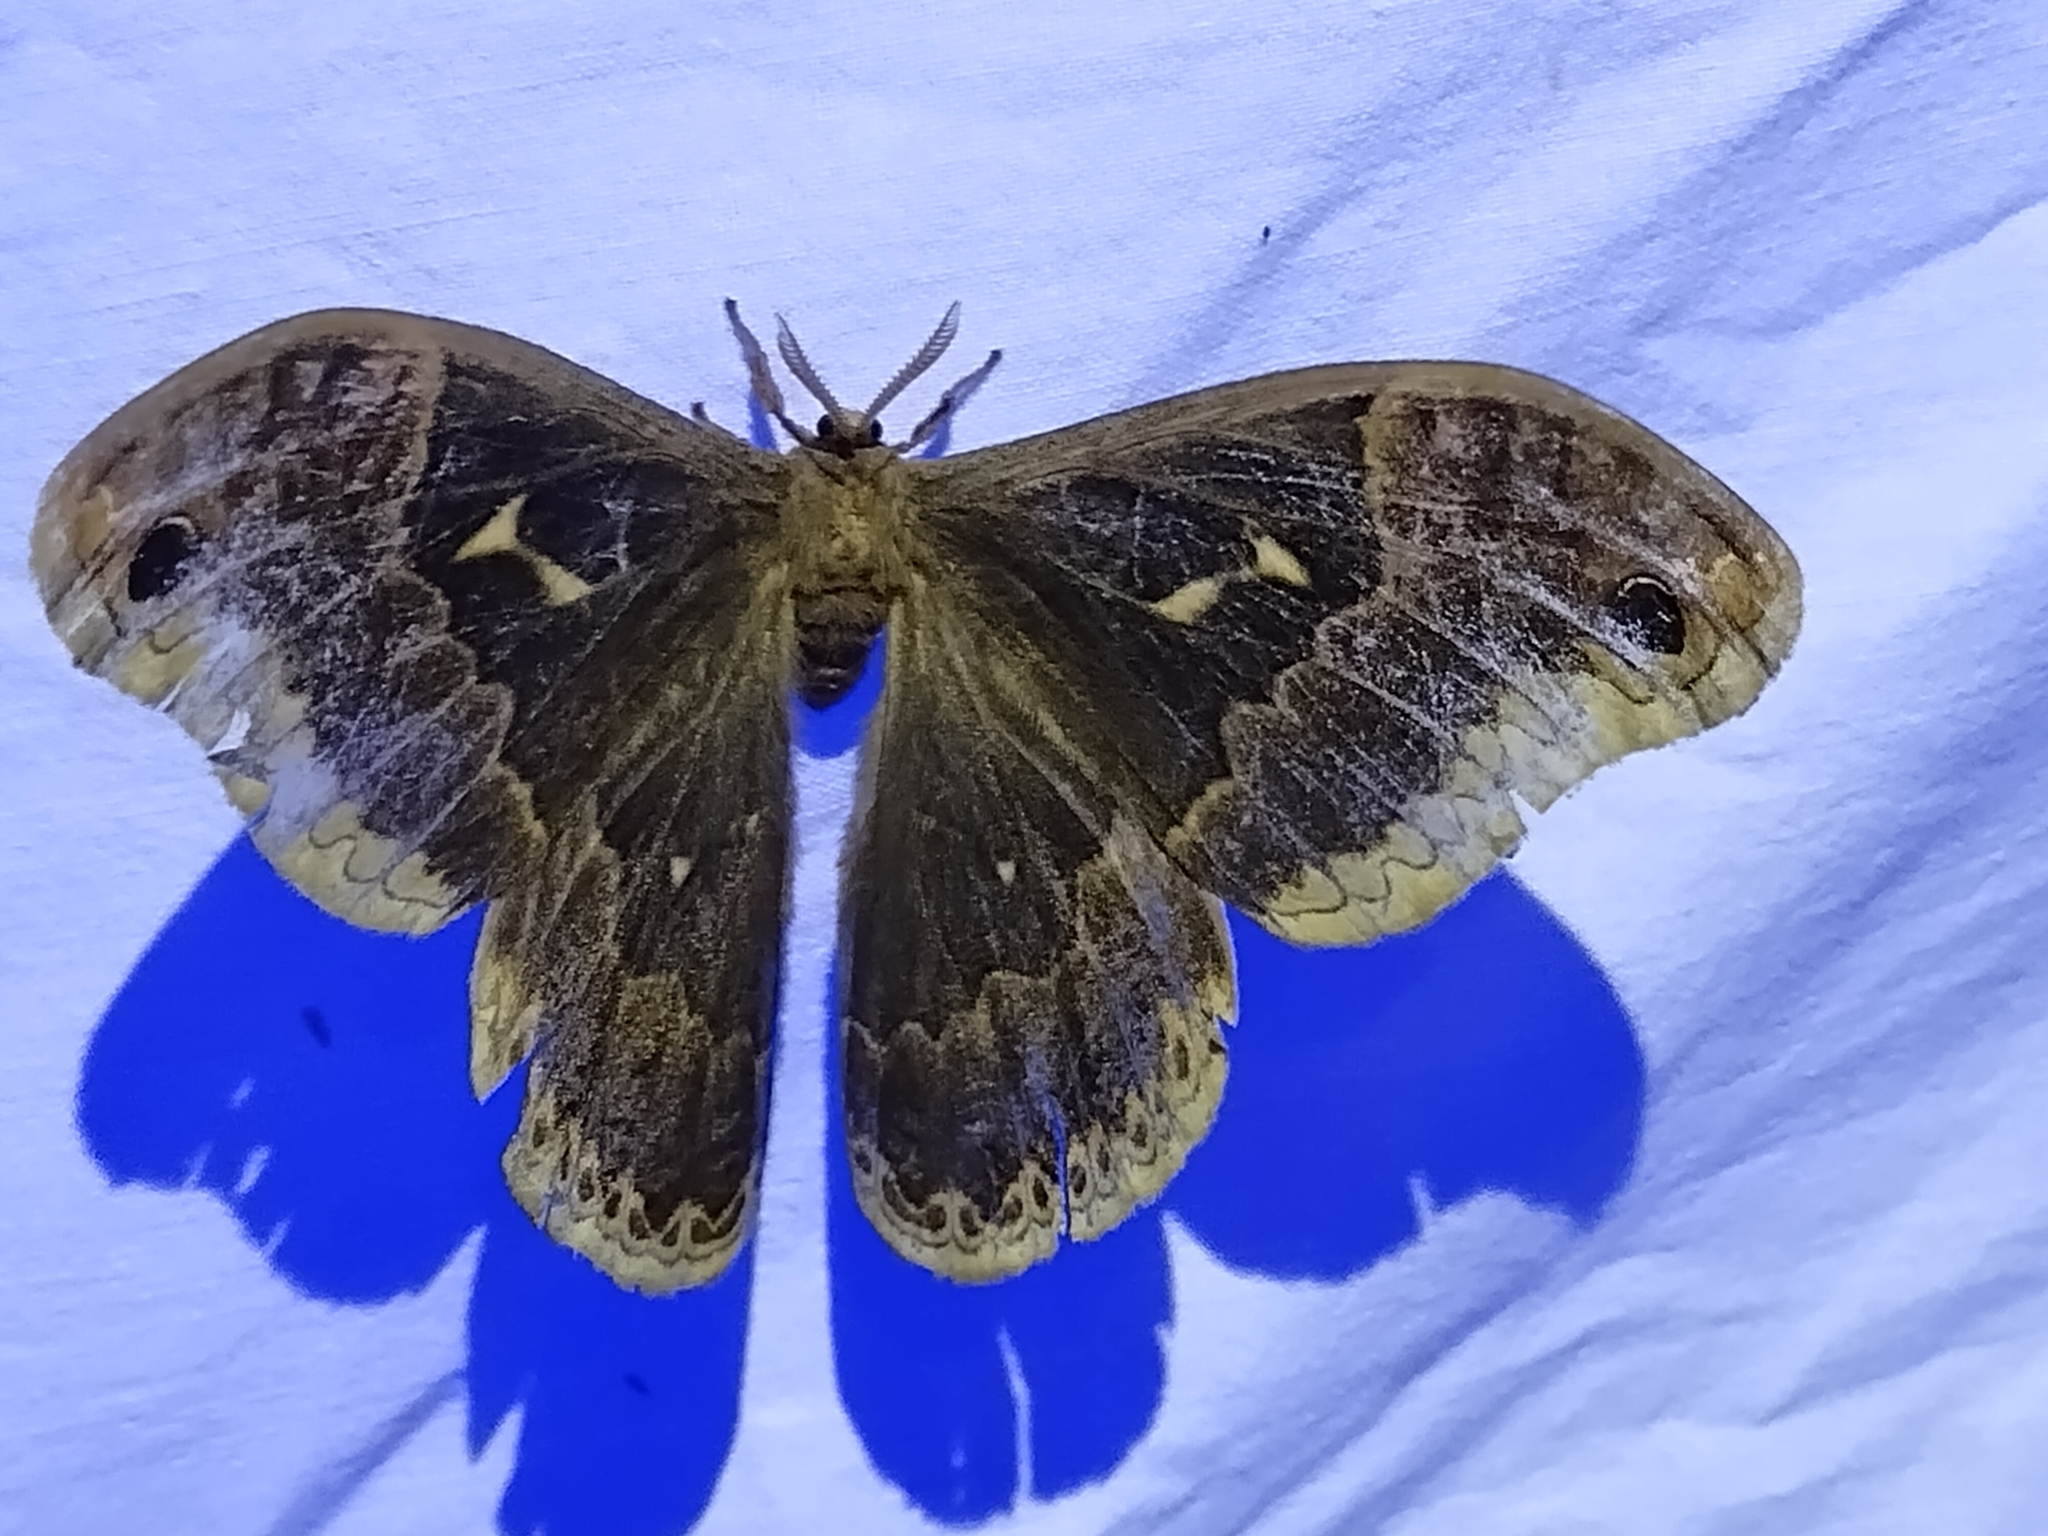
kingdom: Animalia
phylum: Arthropoda
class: Insecta
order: Lepidoptera
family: Saturniidae
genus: Callosamia
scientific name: Callosamia angulifera
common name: Tulip tree silkmoth
